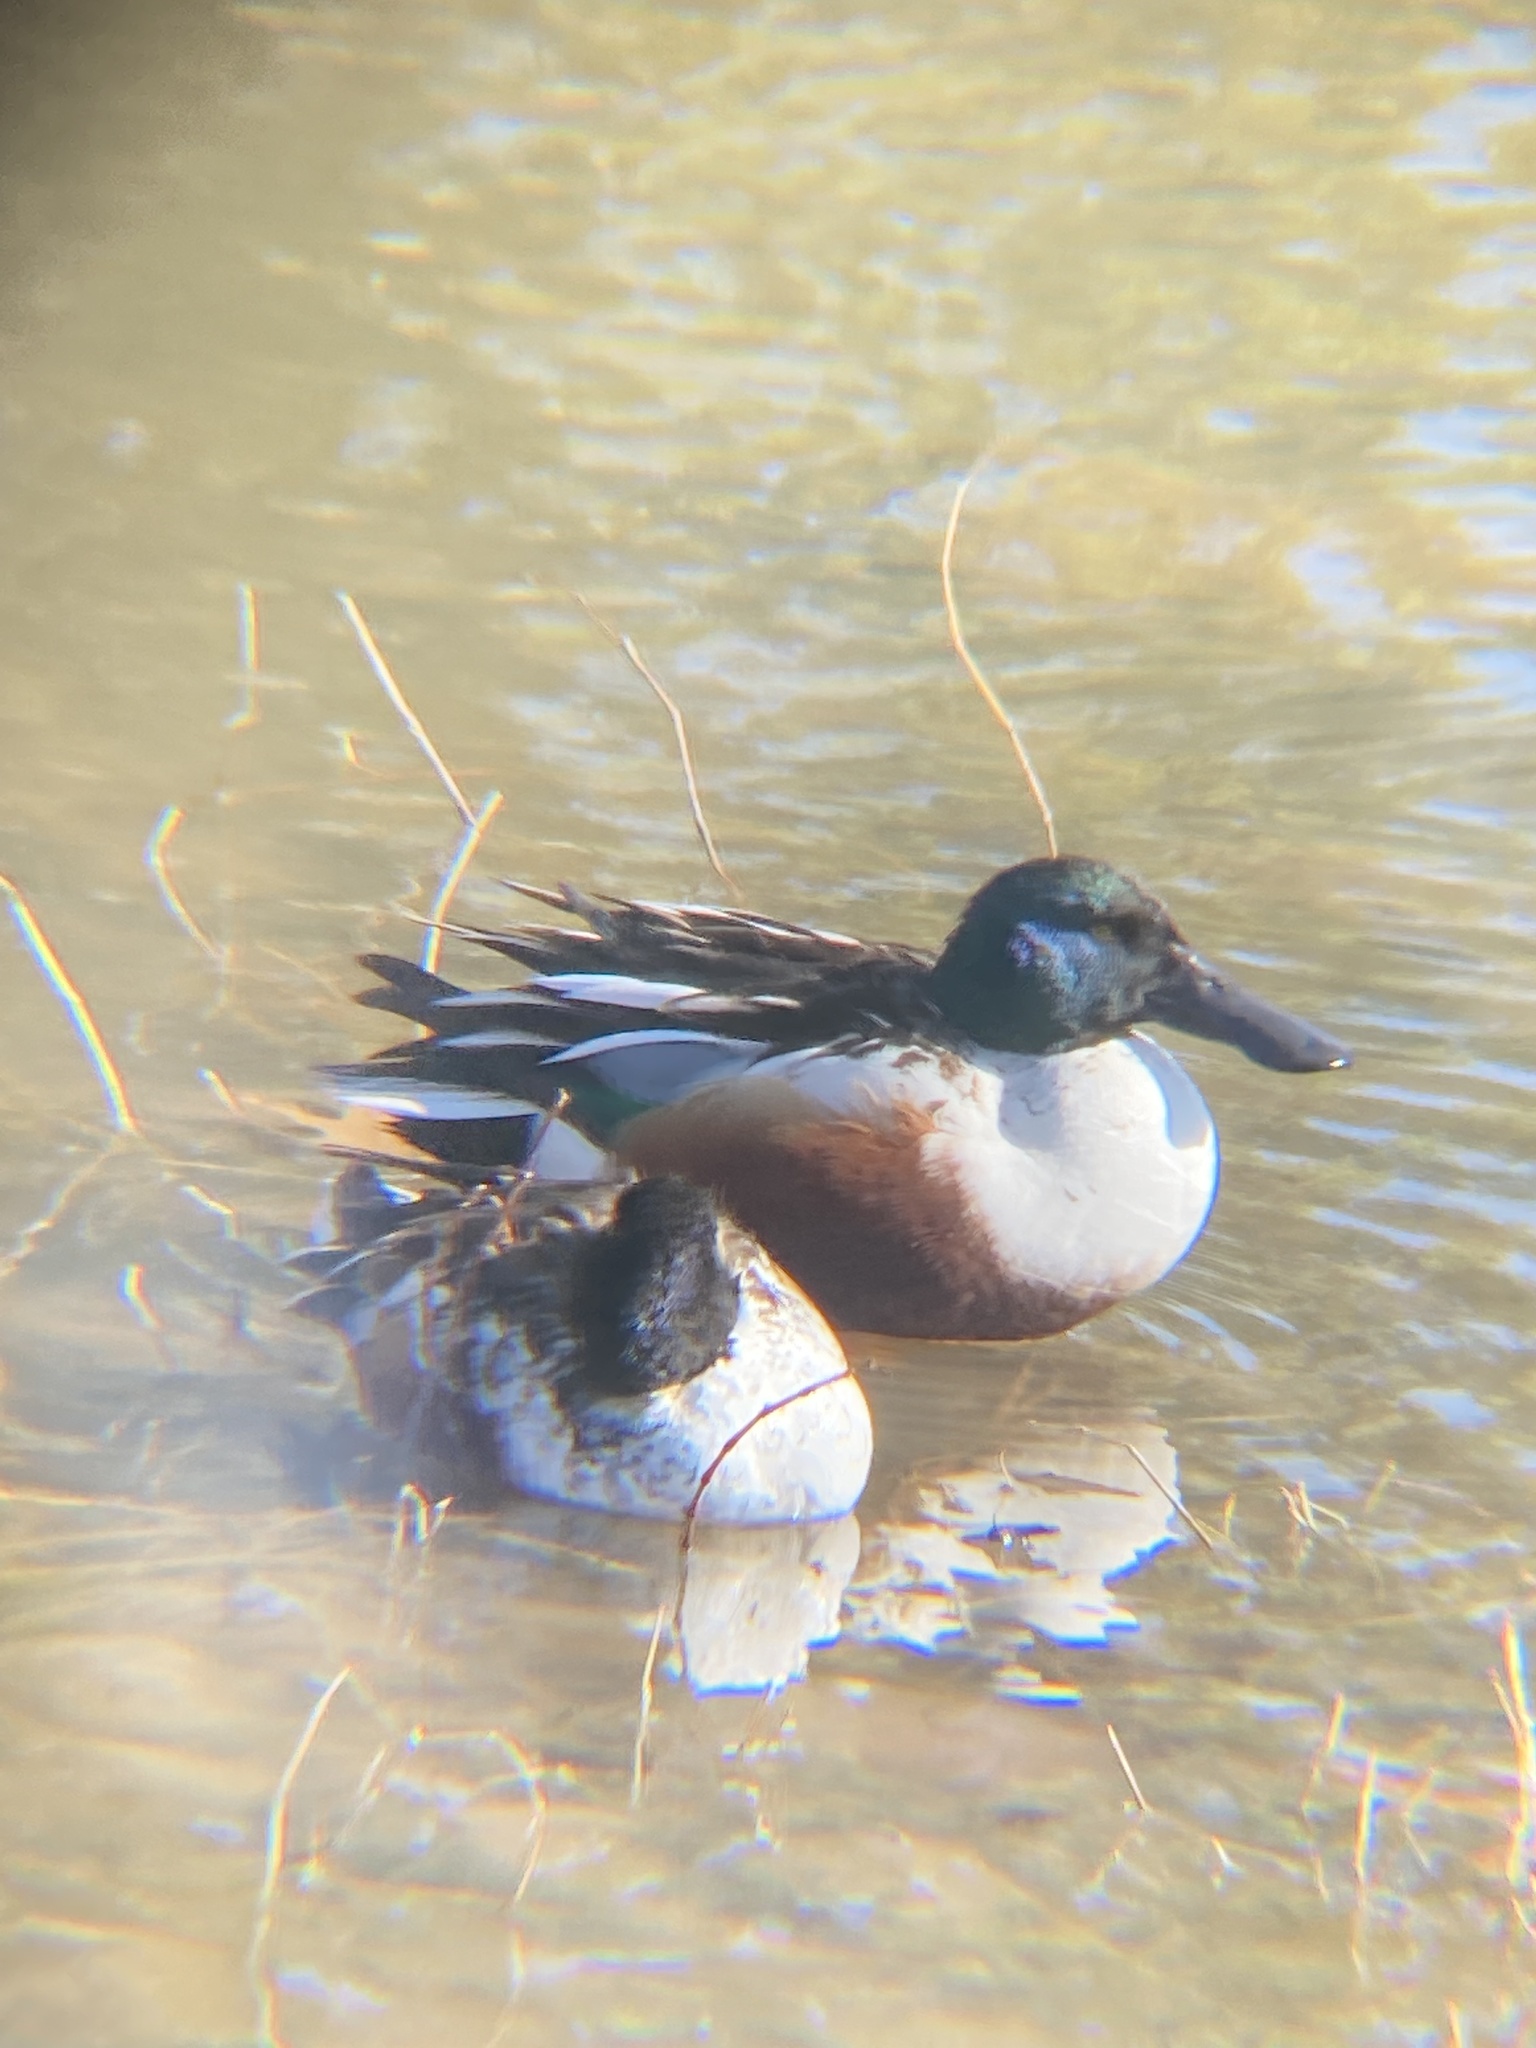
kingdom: Animalia
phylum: Chordata
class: Aves
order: Anseriformes
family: Anatidae
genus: Spatula
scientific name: Spatula clypeata
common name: Northern shoveler
